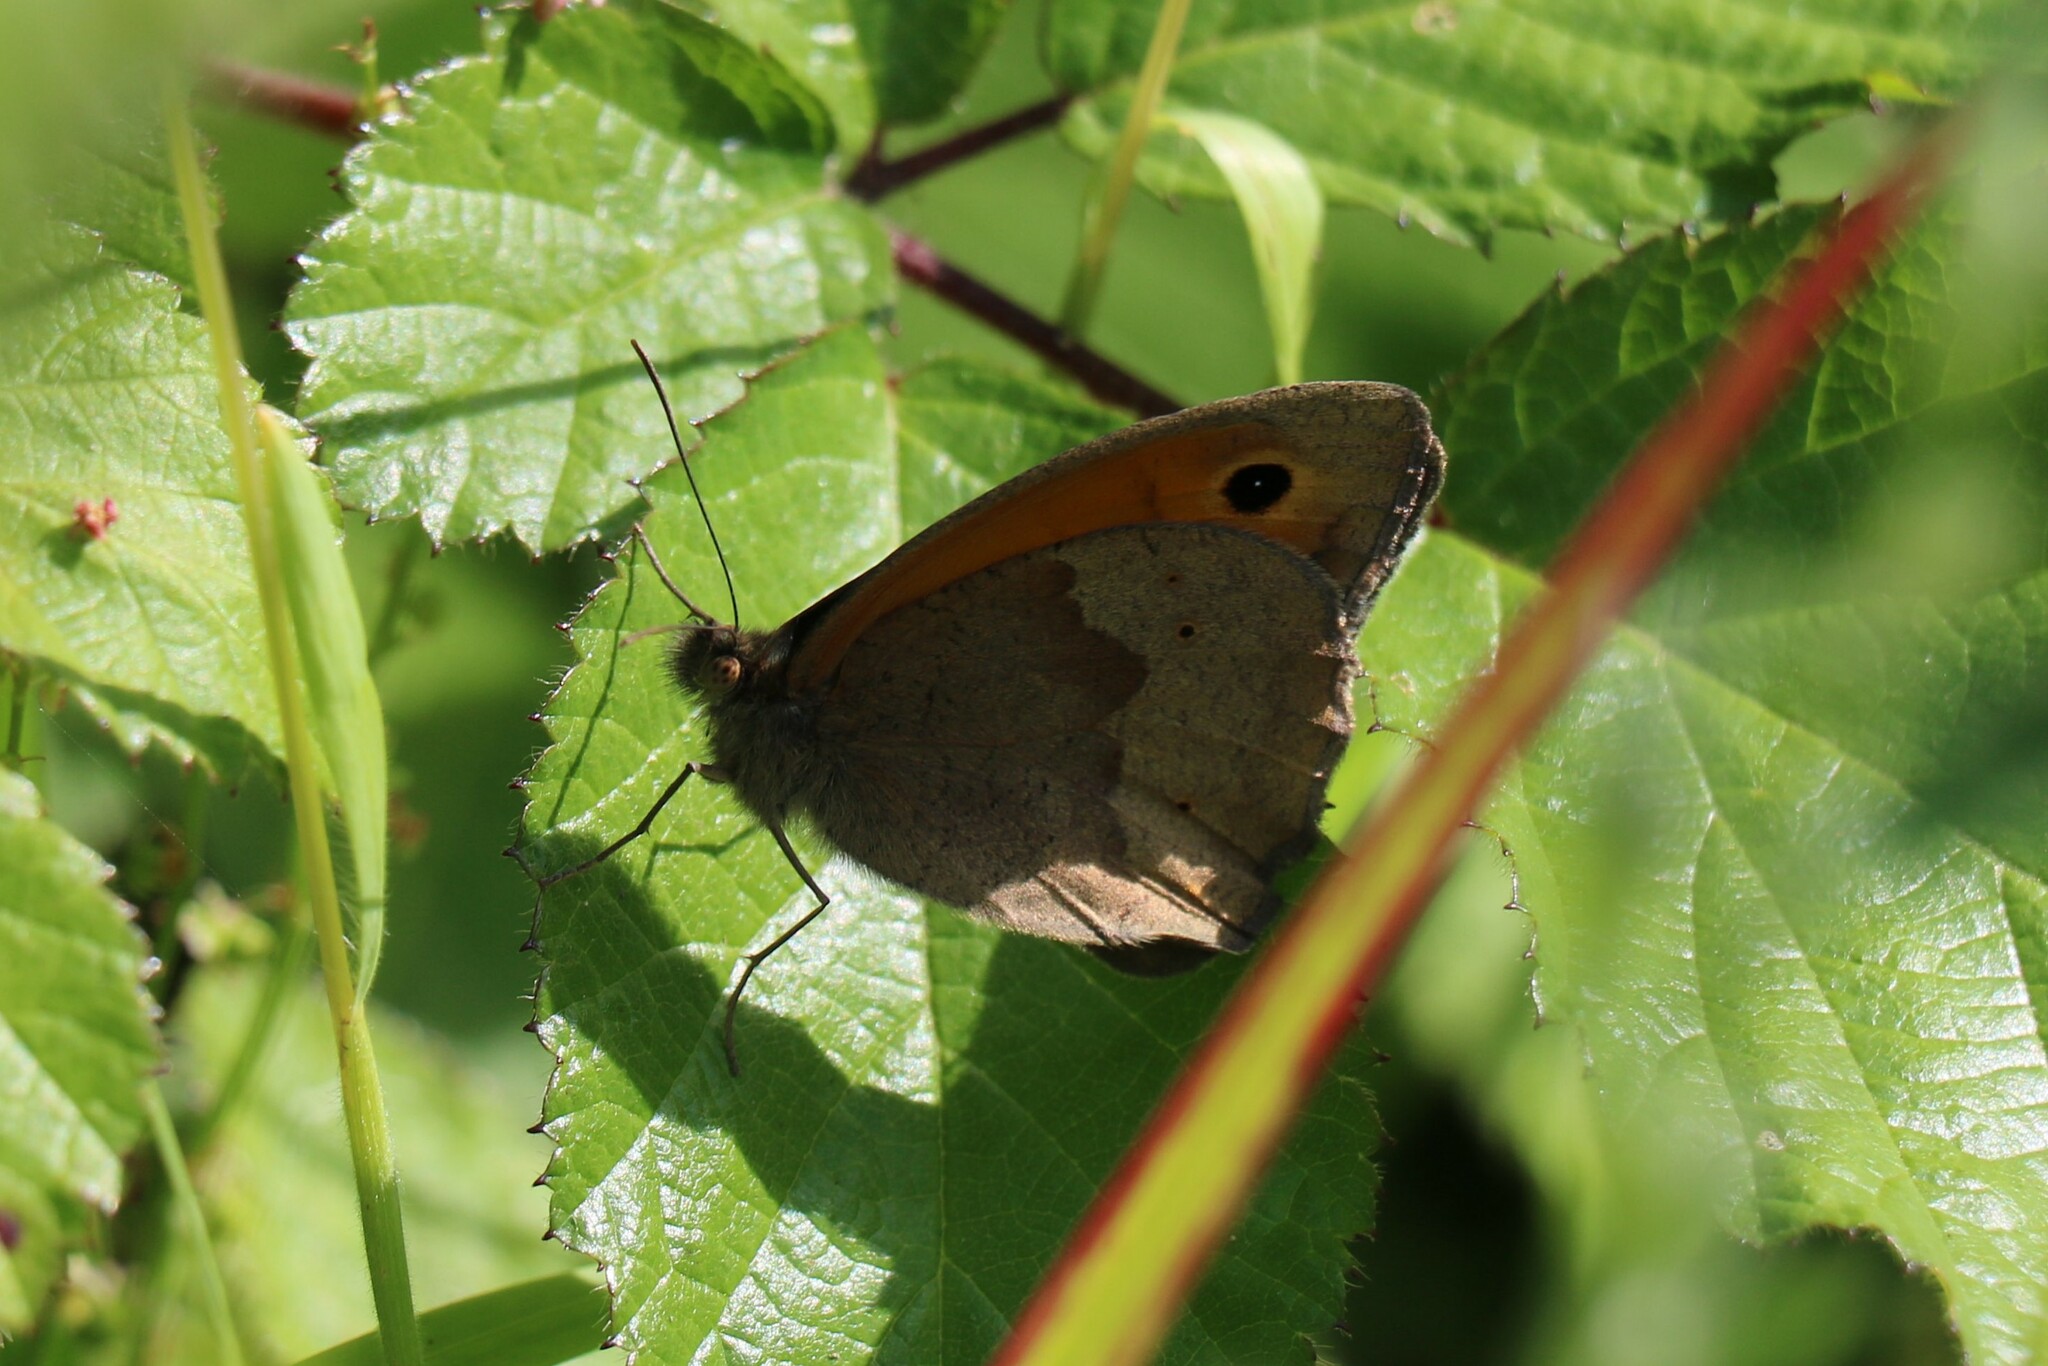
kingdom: Animalia
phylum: Arthropoda
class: Insecta
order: Lepidoptera
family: Nymphalidae
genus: Maniola
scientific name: Maniola jurtina
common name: Meadow brown
